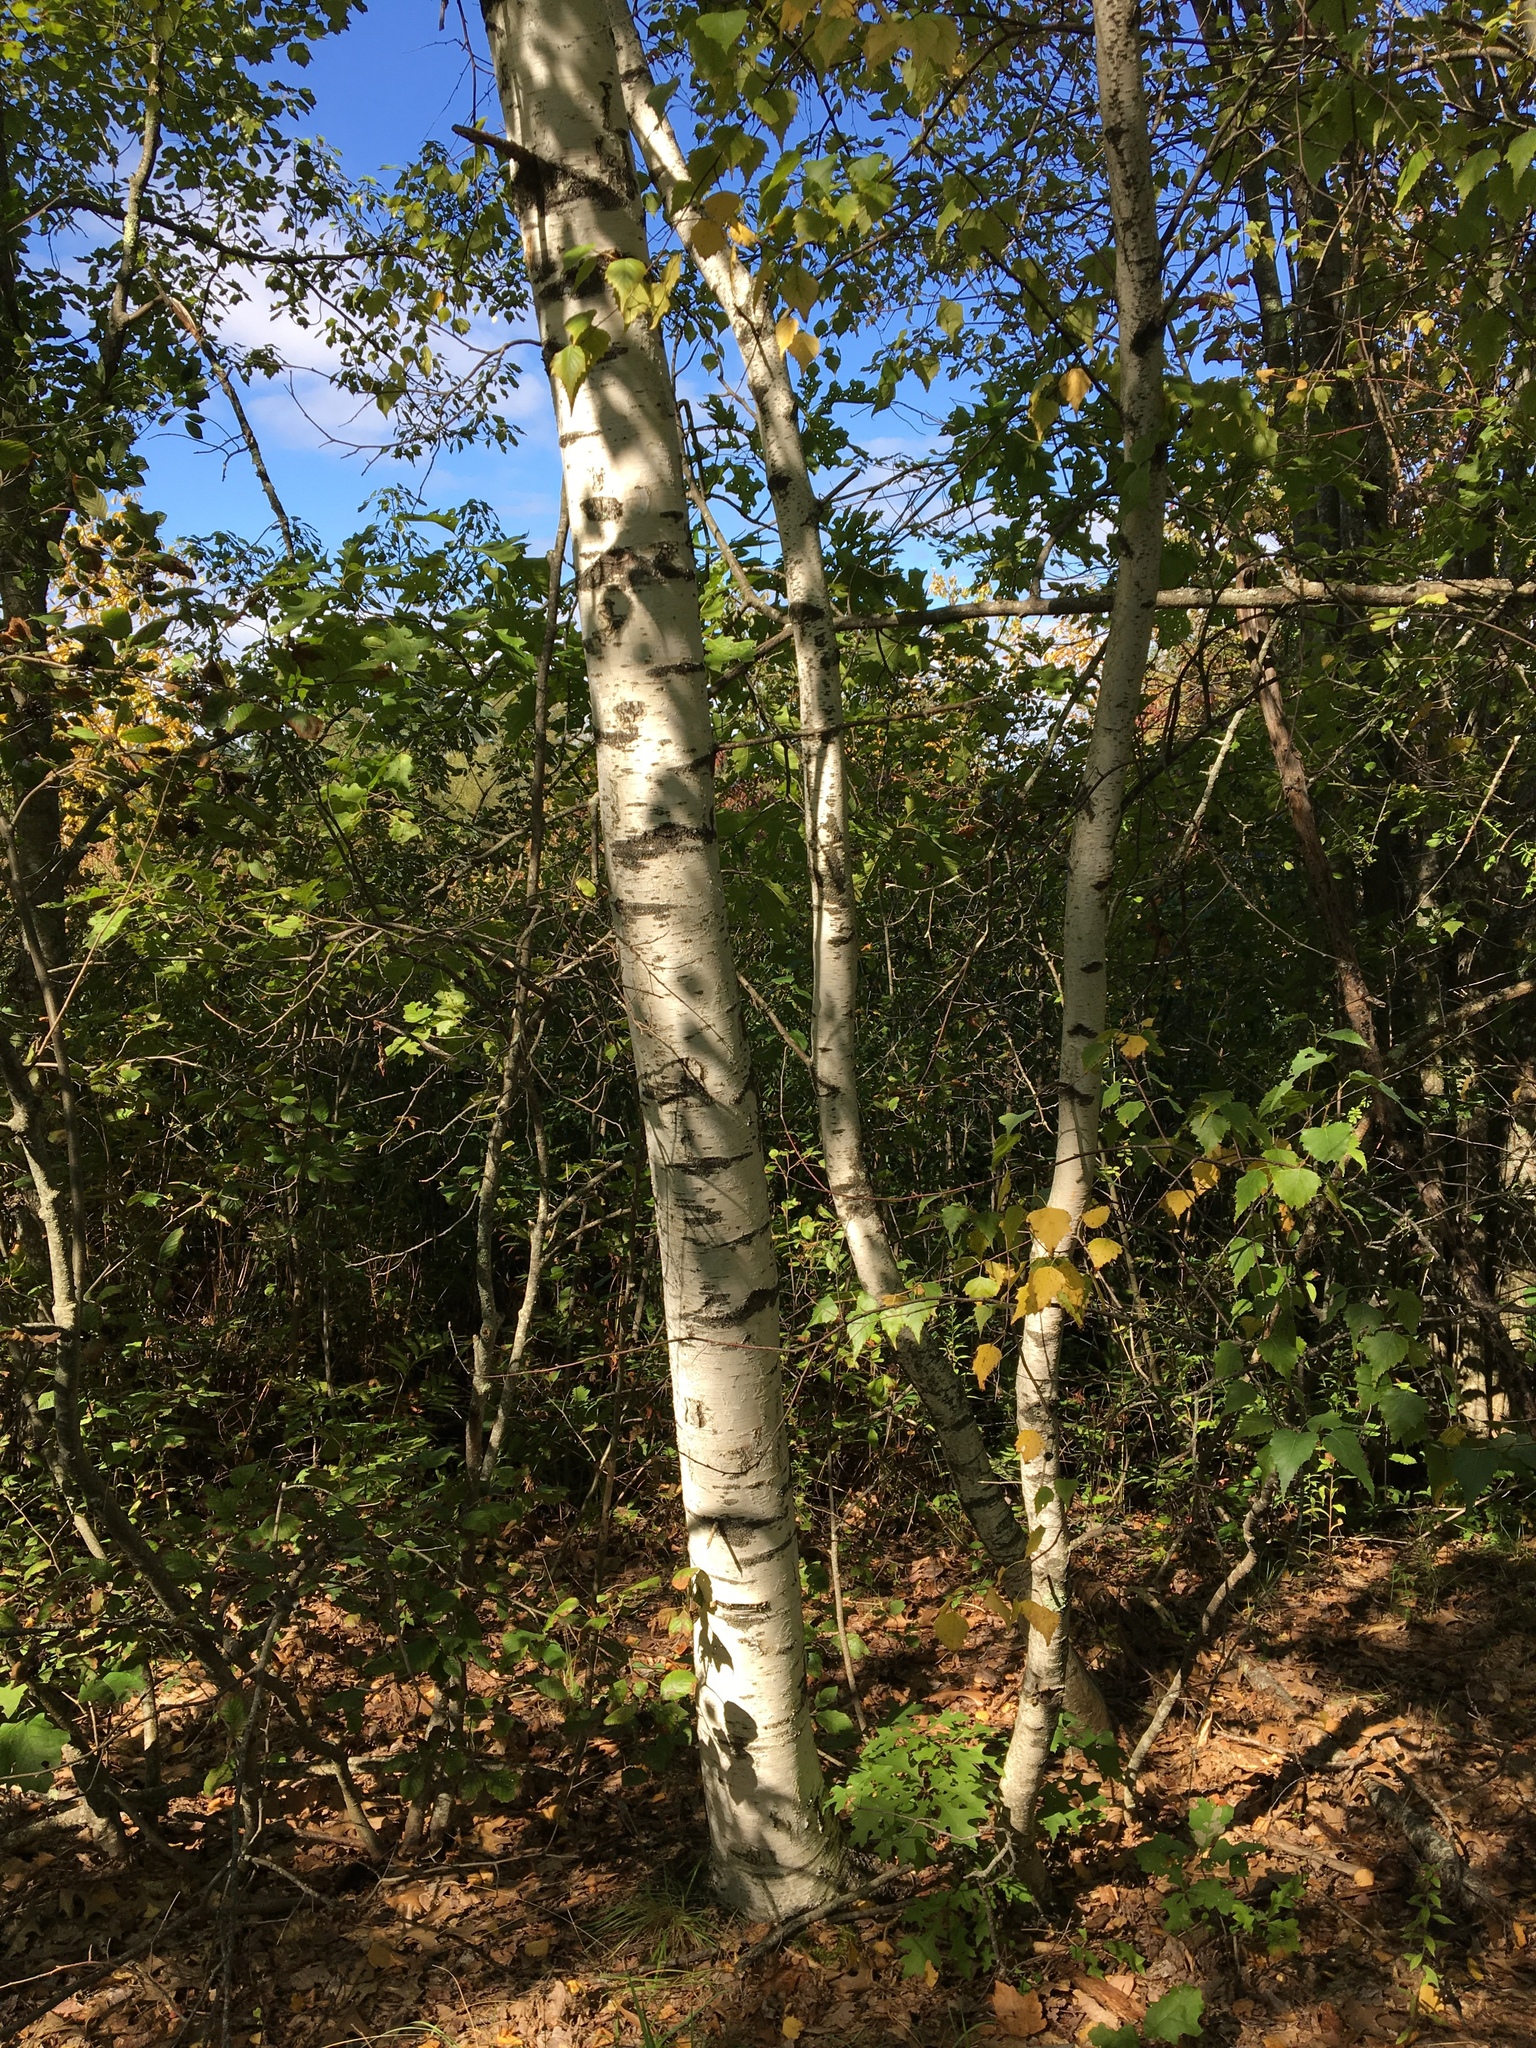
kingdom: Plantae
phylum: Tracheophyta
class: Magnoliopsida
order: Fagales
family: Betulaceae
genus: Betula
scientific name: Betula populifolia
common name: Fire birch
